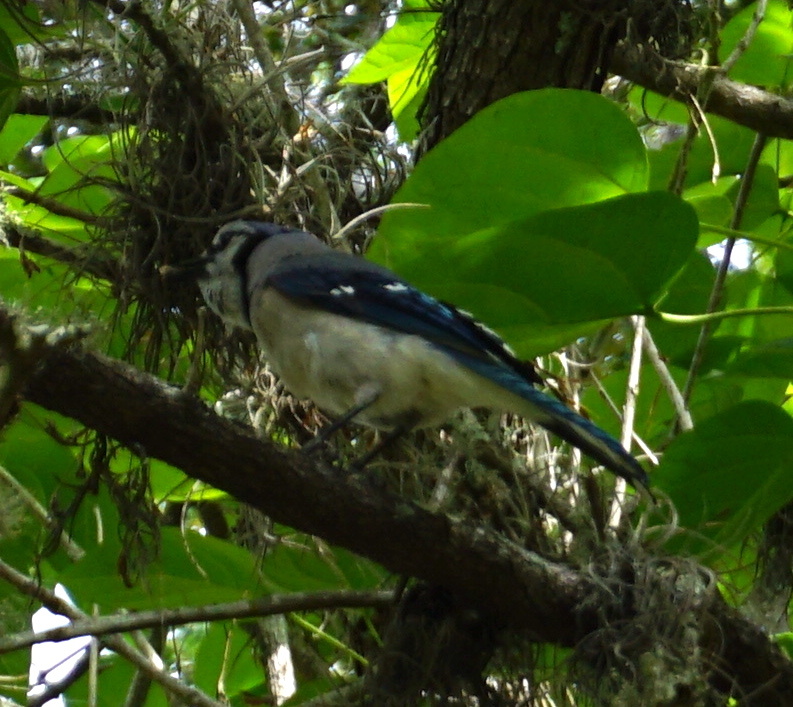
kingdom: Animalia
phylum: Chordata
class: Aves
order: Passeriformes
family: Corvidae
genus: Cyanocitta
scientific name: Cyanocitta cristata
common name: Blue jay
